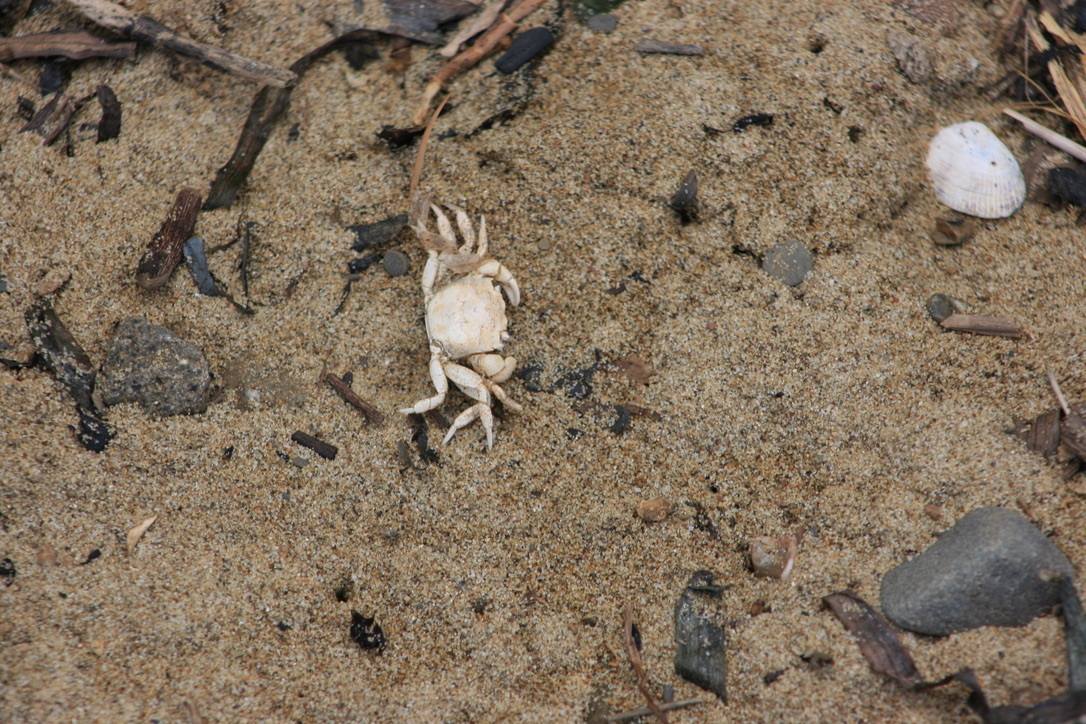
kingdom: Animalia
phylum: Arthropoda
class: Malacostraca
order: Decapoda
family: Varunidae
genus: Hemigrapsus
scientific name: Hemigrapsus oregonensis
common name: Yellow shore crab
